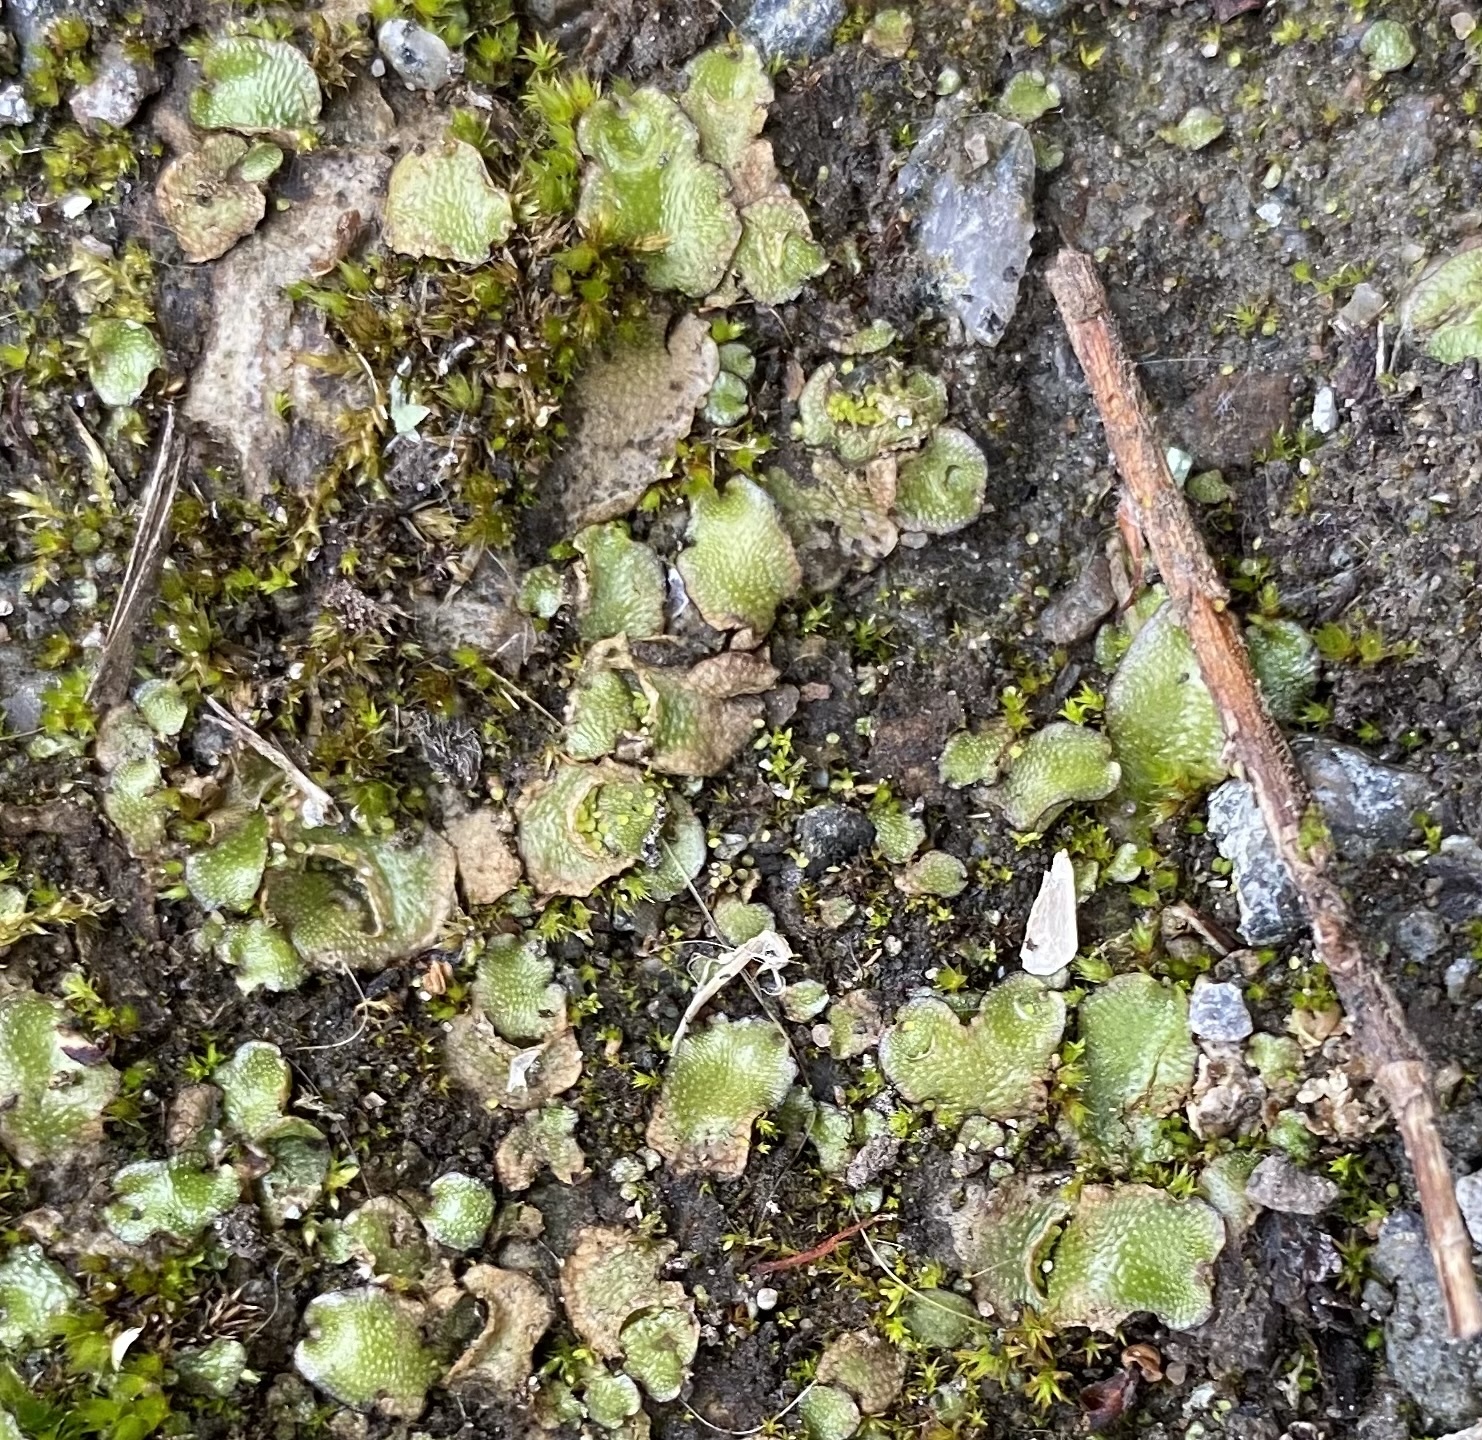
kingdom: Plantae
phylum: Marchantiophyta
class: Marchantiopsida
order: Lunulariales
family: Lunulariaceae
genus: Lunularia
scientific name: Lunularia cruciata
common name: Crescent-cup liverwort
